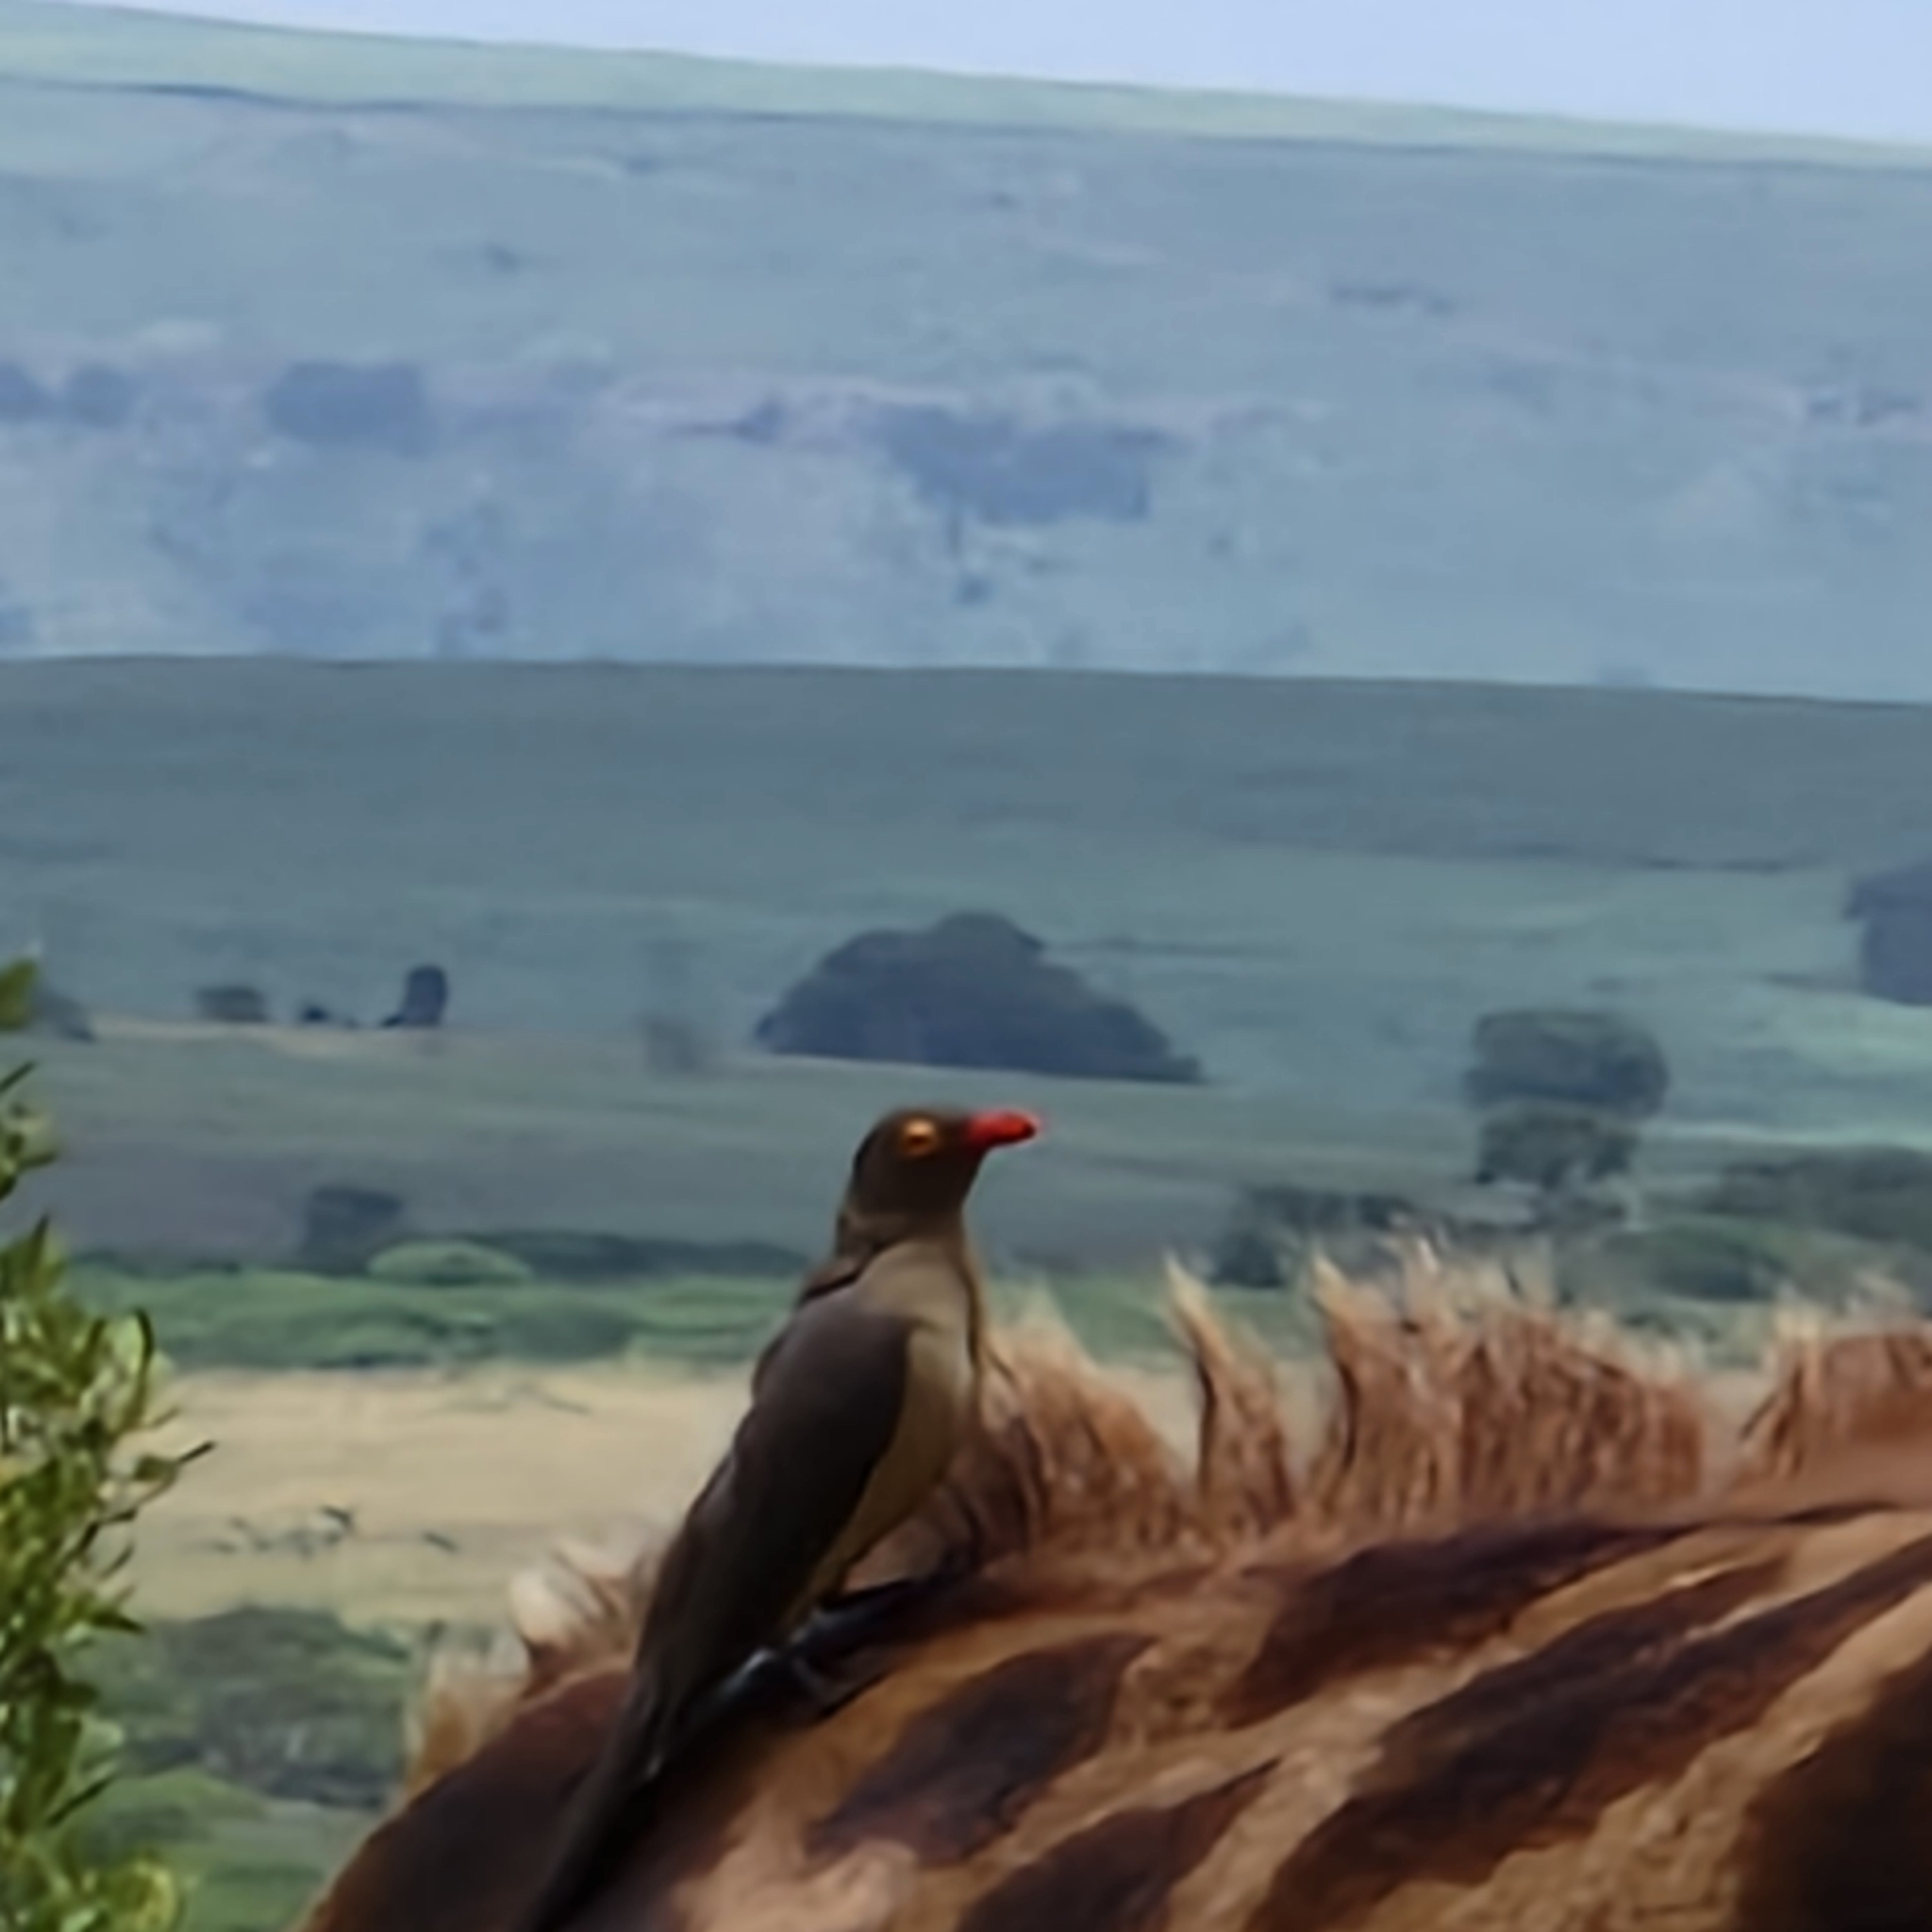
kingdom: Animalia
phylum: Chordata
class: Aves
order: Passeriformes
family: Buphagidae
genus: Buphagus
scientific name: Buphagus erythrorhynchus
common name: Red-billed oxpecker
